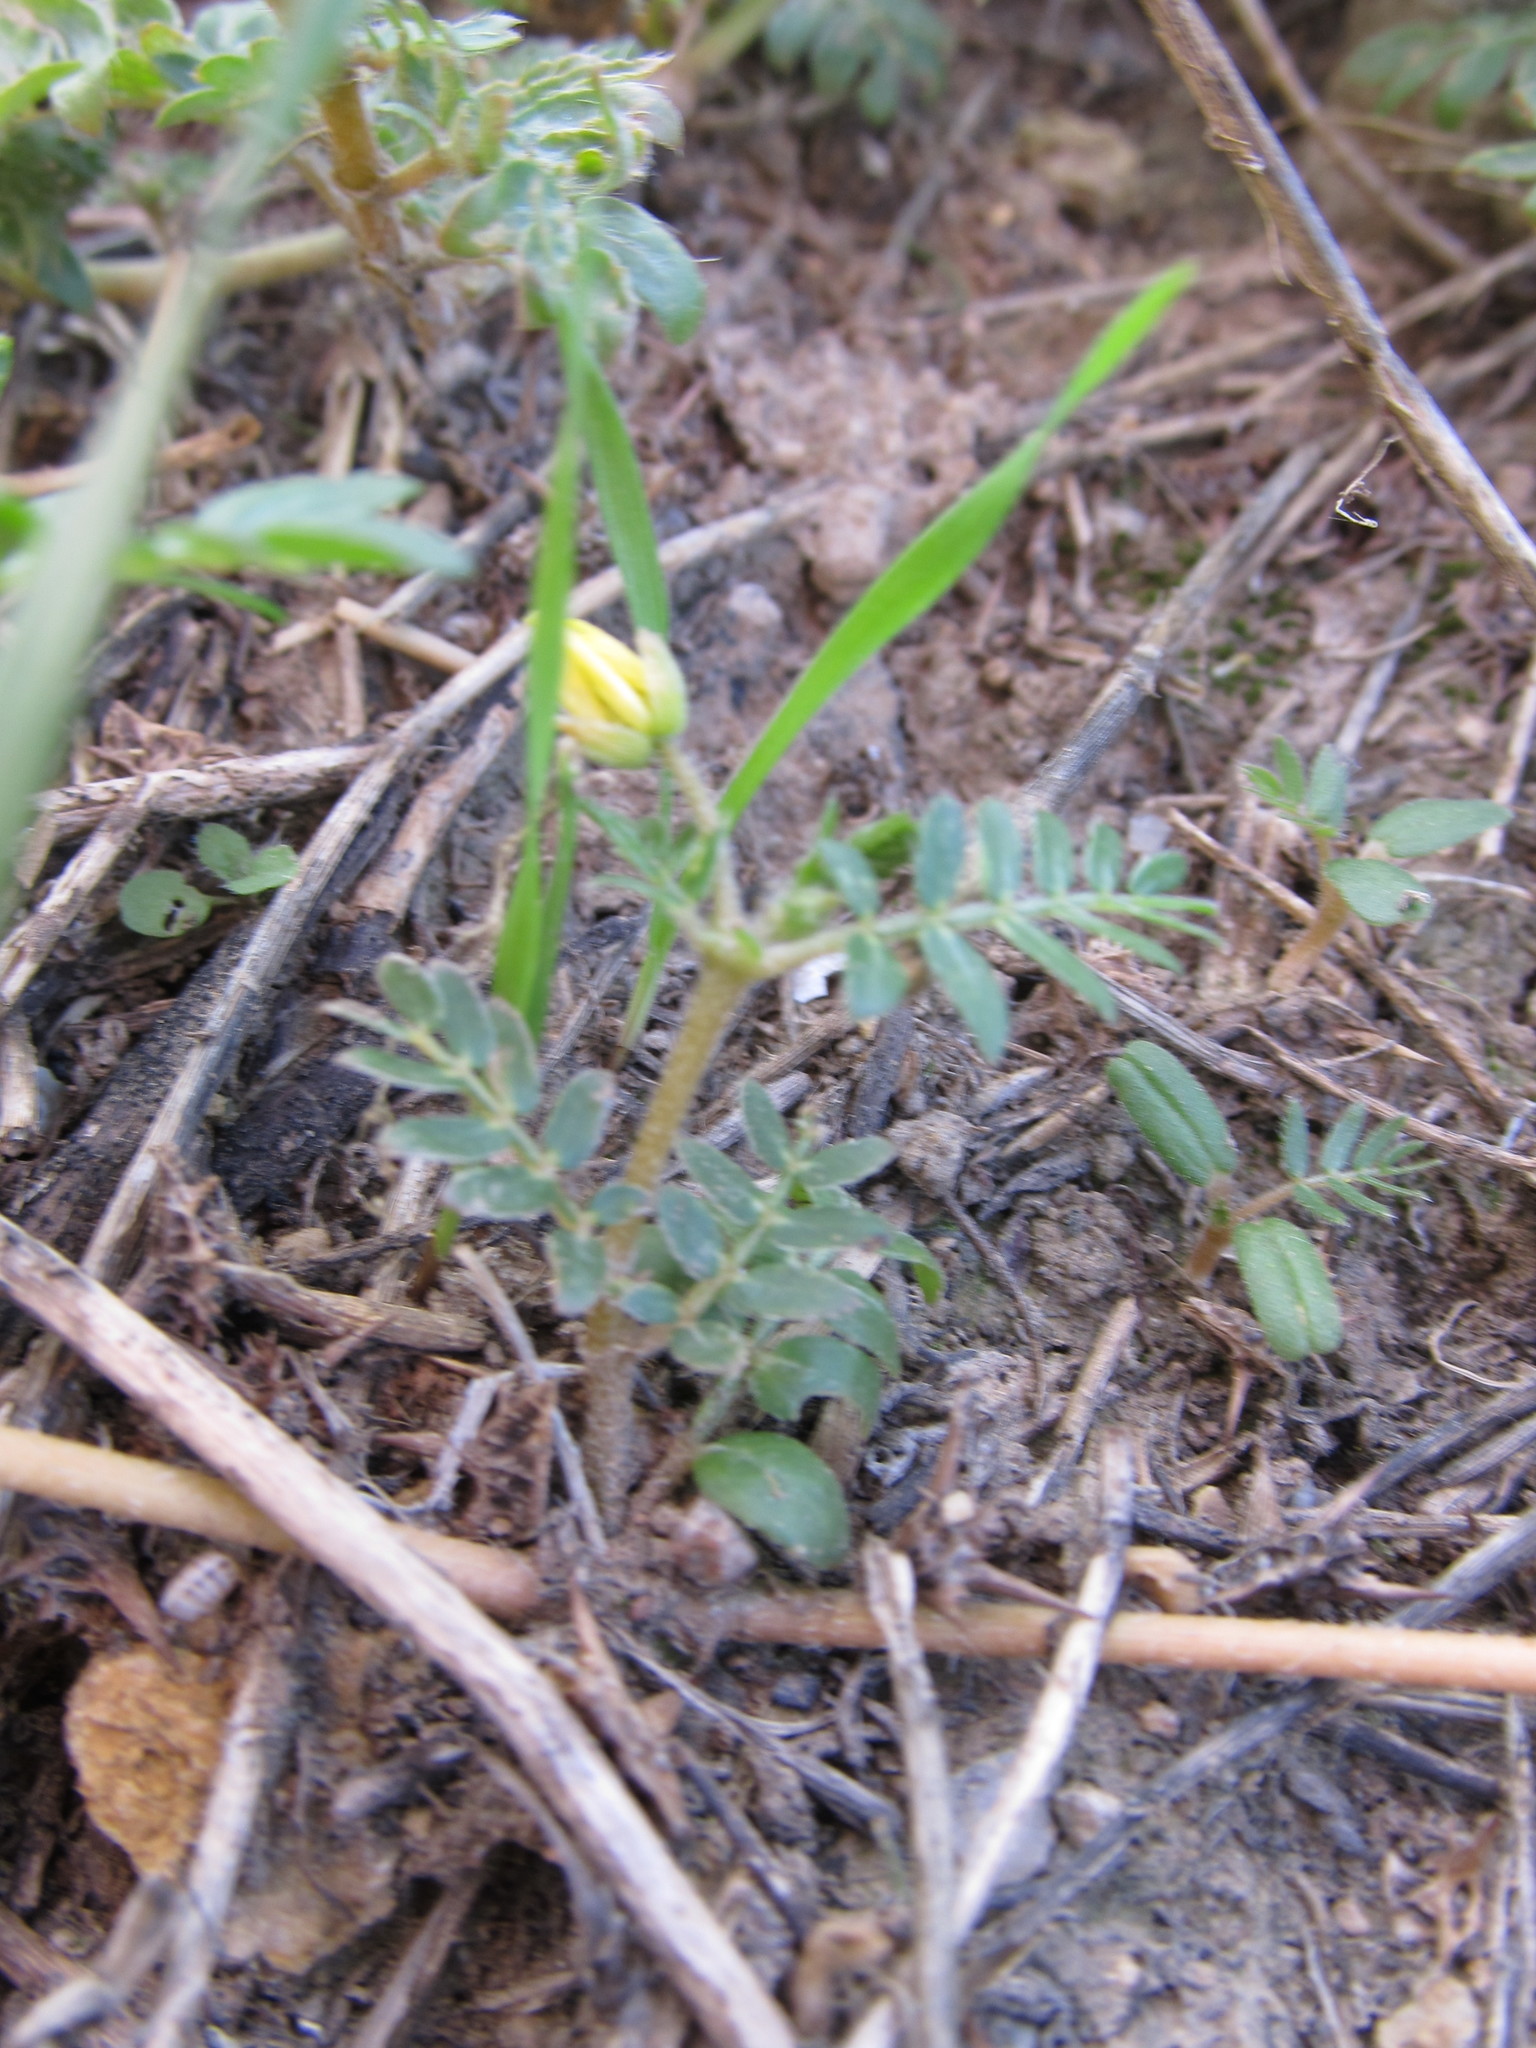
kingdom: Plantae
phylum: Tracheophyta
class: Magnoliopsida
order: Zygophyllales
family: Zygophyllaceae
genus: Tribulus
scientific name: Tribulus terrestris
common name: Puncturevine
